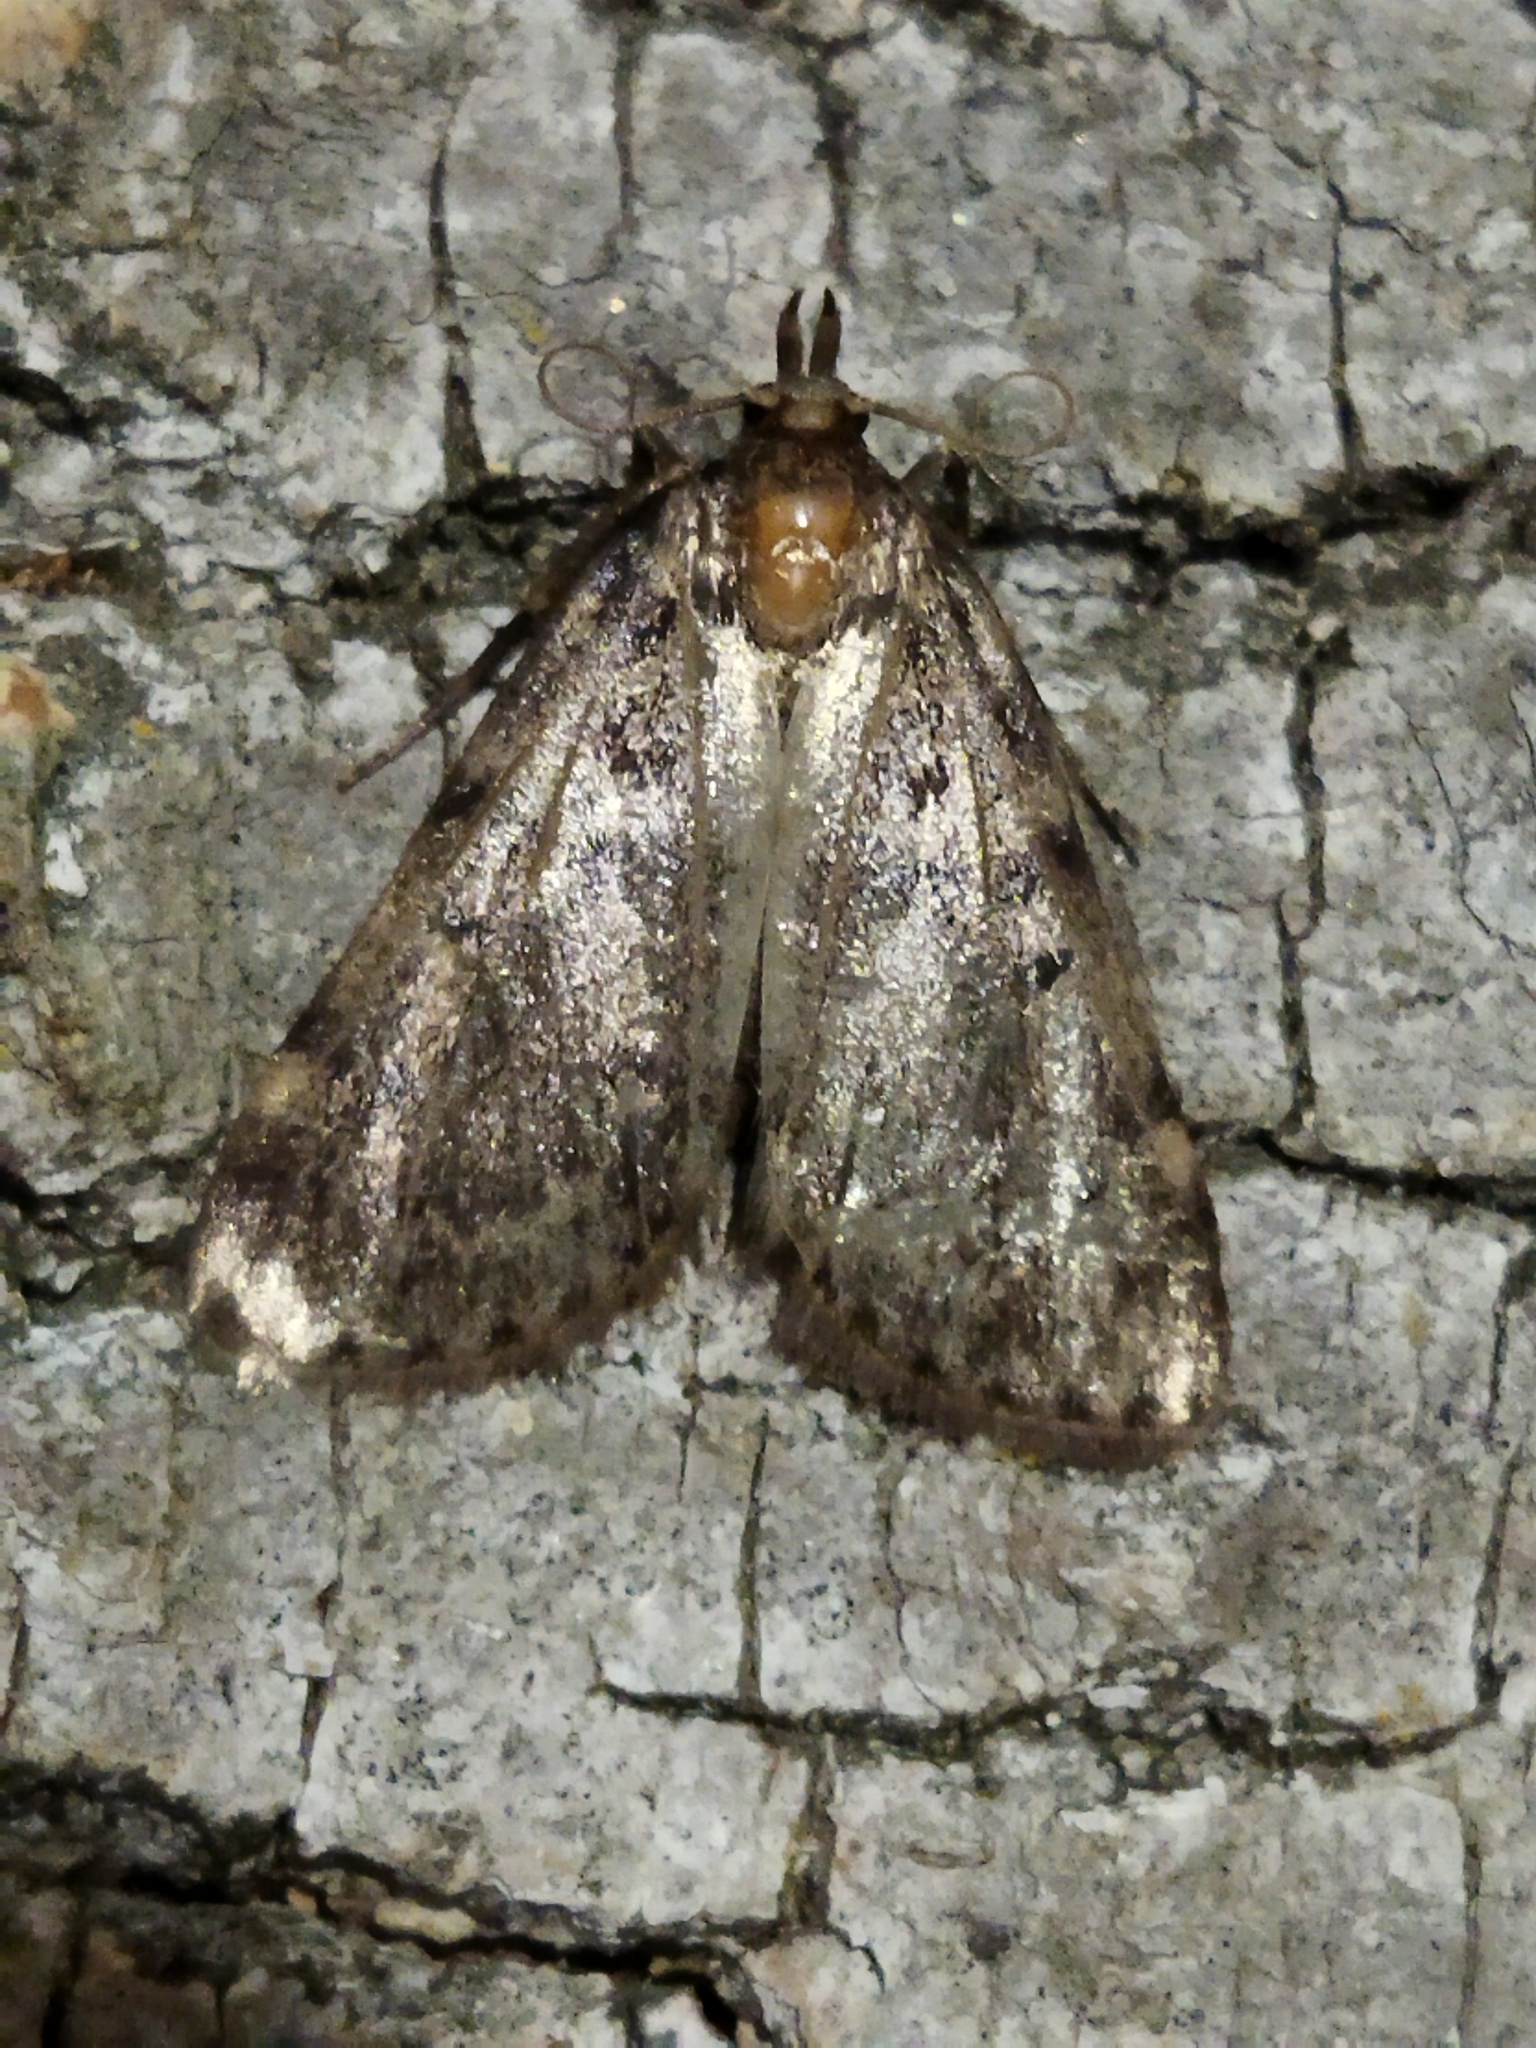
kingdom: Animalia
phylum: Arthropoda
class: Insecta
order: Lepidoptera
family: Pyralidae
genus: Aglossa
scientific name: Aglossa pinguinalis
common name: Large tabby
